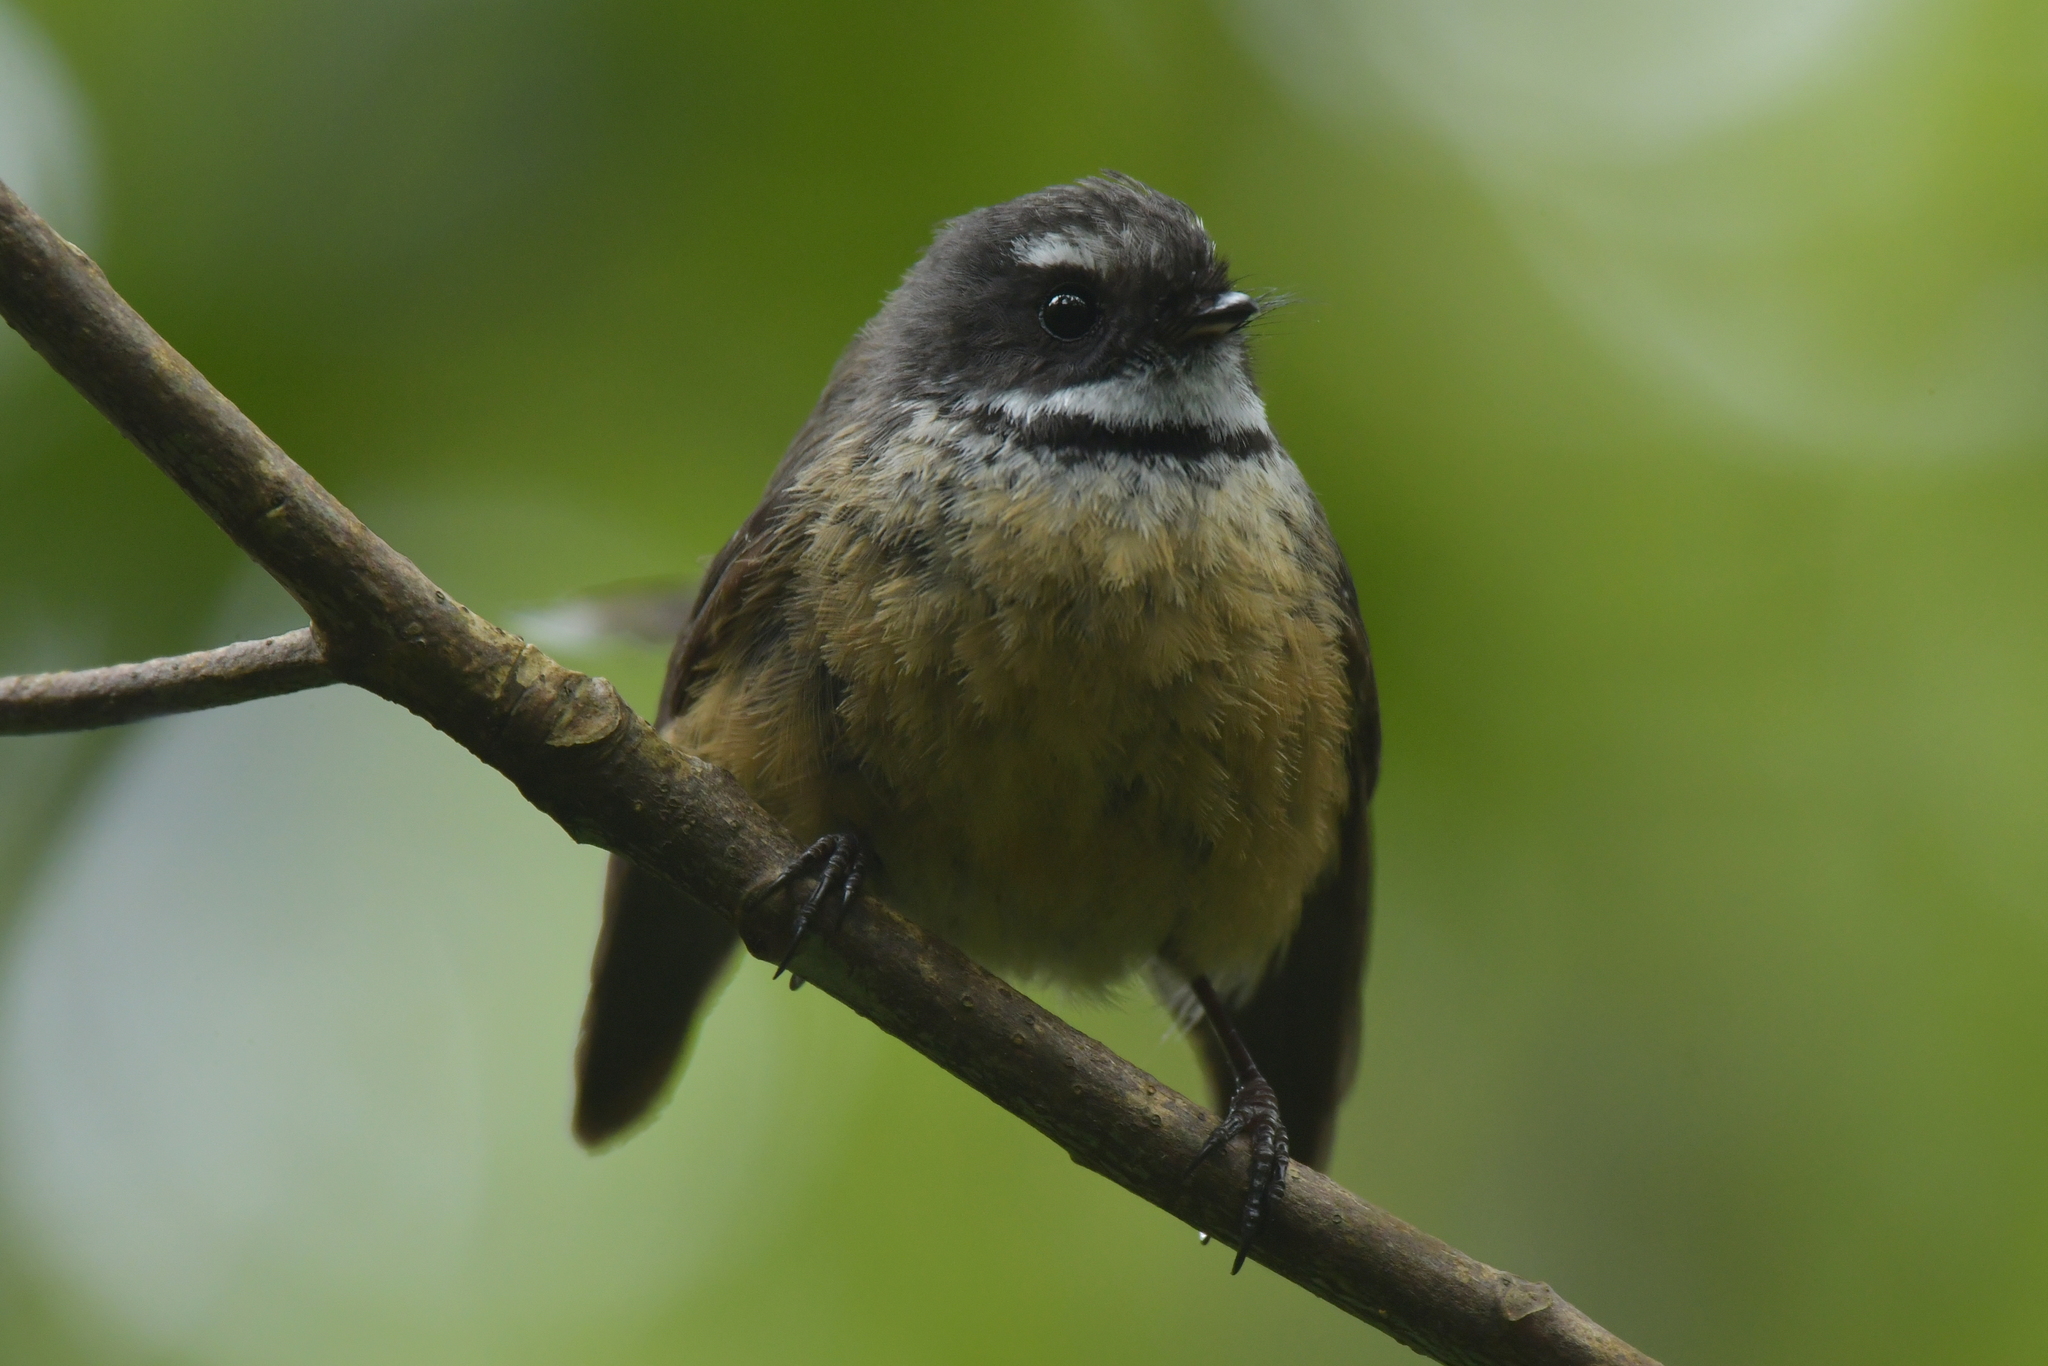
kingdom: Animalia
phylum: Chordata
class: Aves
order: Passeriformes
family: Rhipiduridae
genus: Rhipidura
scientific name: Rhipidura fuliginosa
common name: New zealand fantail
